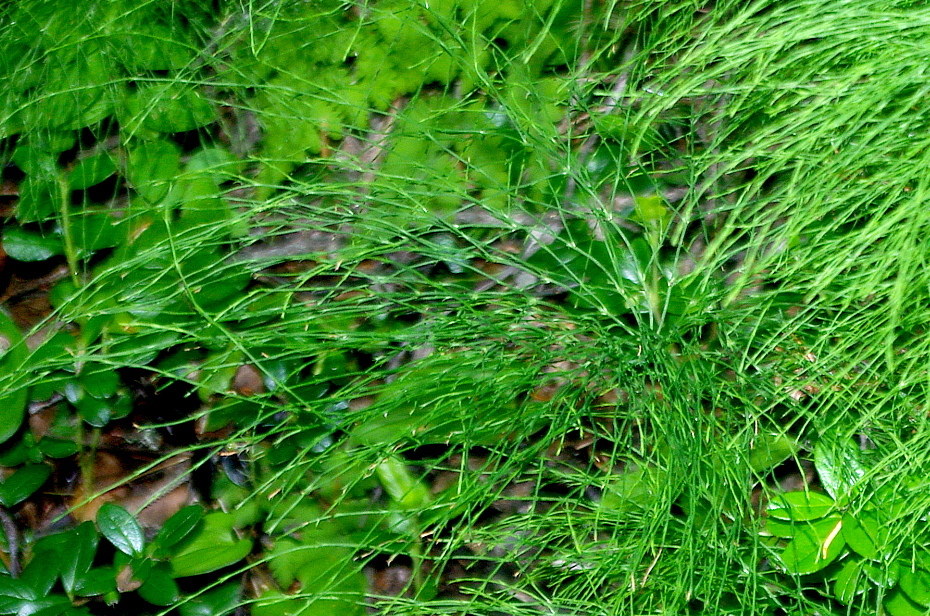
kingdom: Plantae
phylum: Tracheophyta
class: Polypodiopsida
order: Equisetales
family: Equisetaceae
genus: Equisetum
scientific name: Equisetum sylvaticum
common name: Wood horsetail
